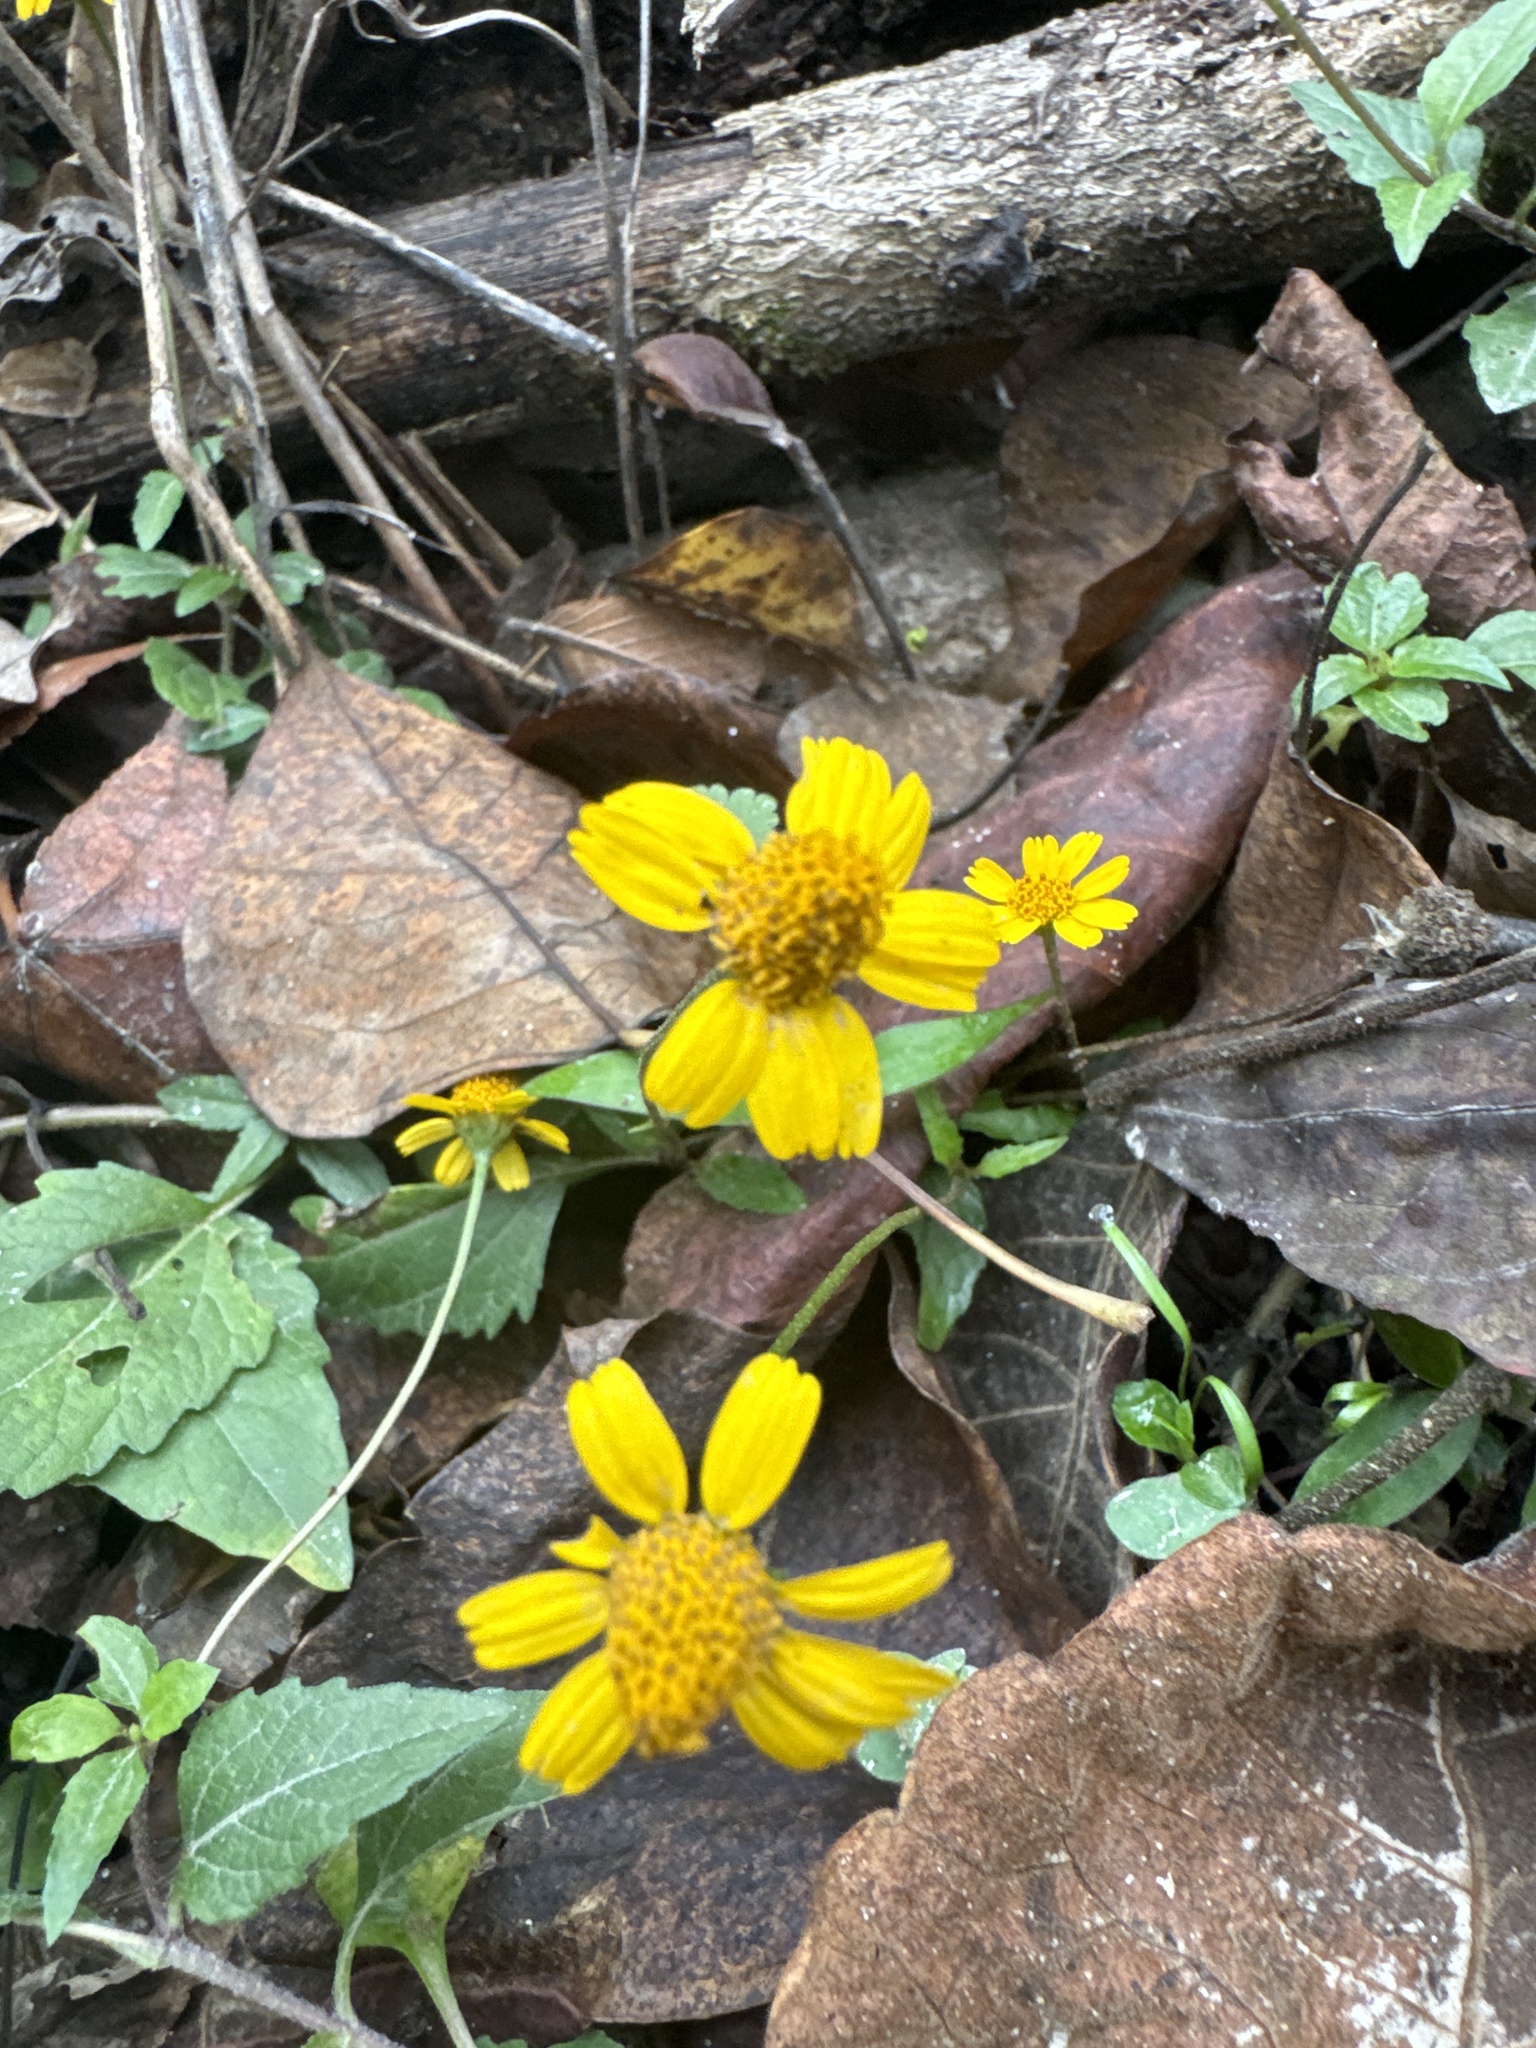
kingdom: Plantae
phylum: Tracheophyta
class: Magnoliopsida
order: Asterales
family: Asteraceae
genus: Acmella
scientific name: Acmella repens
